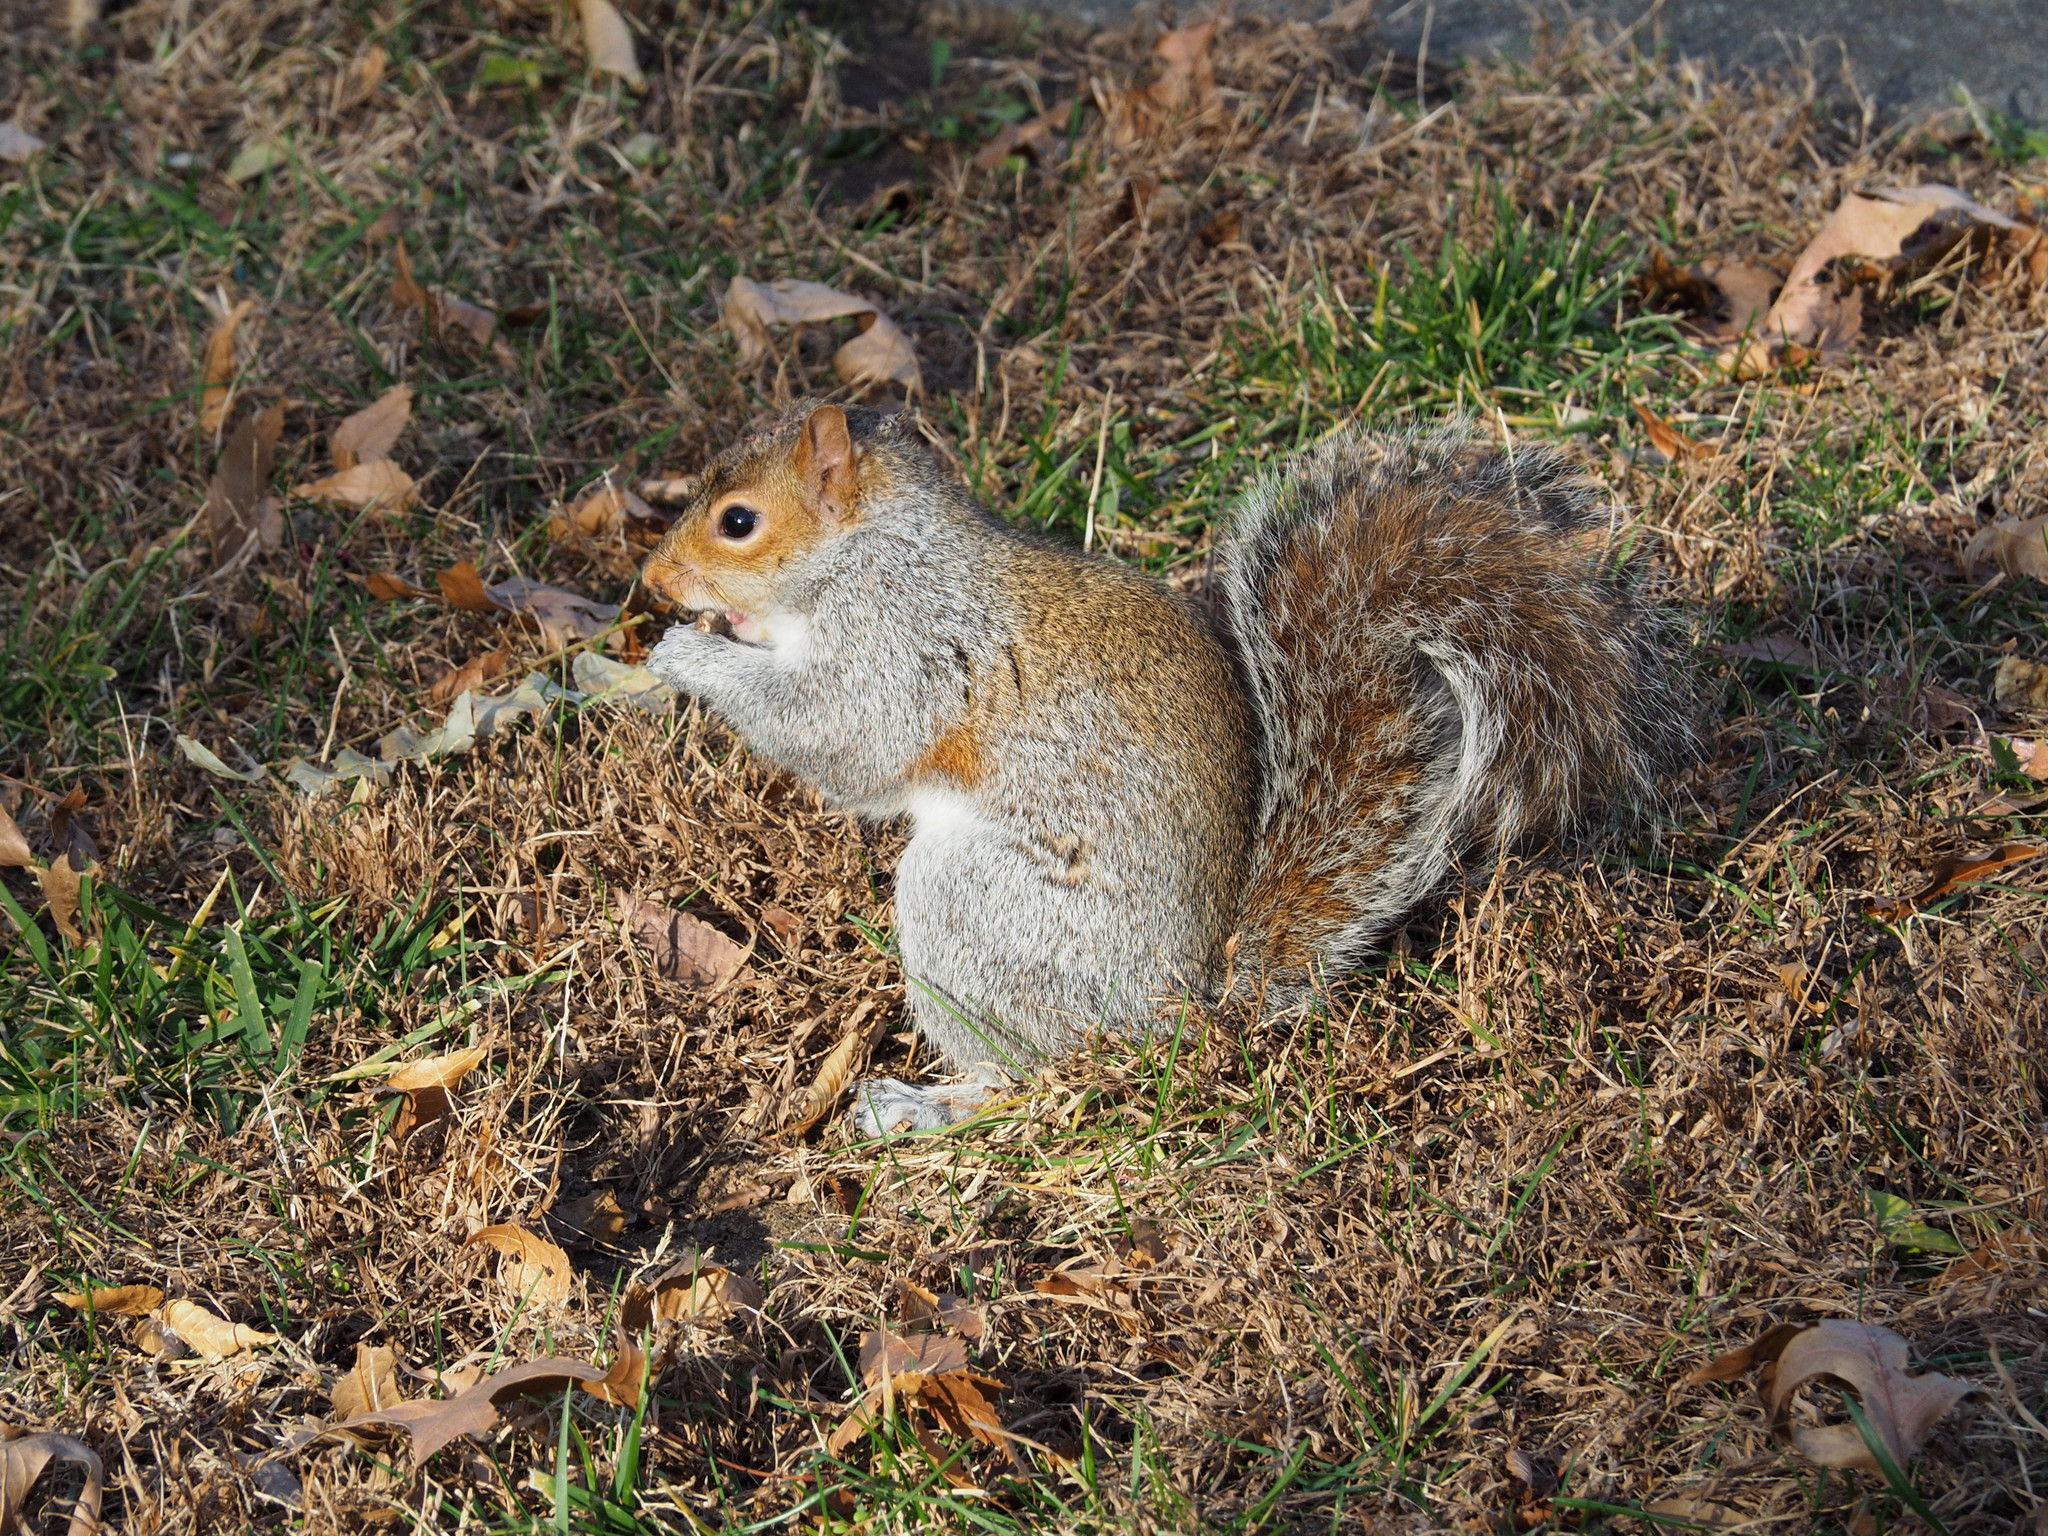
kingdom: Animalia
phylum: Chordata
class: Mammalia
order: Rodentia
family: Sciuridae
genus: Sciurus
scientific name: Sciurus carolinensis
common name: Eastern gray squirrel
